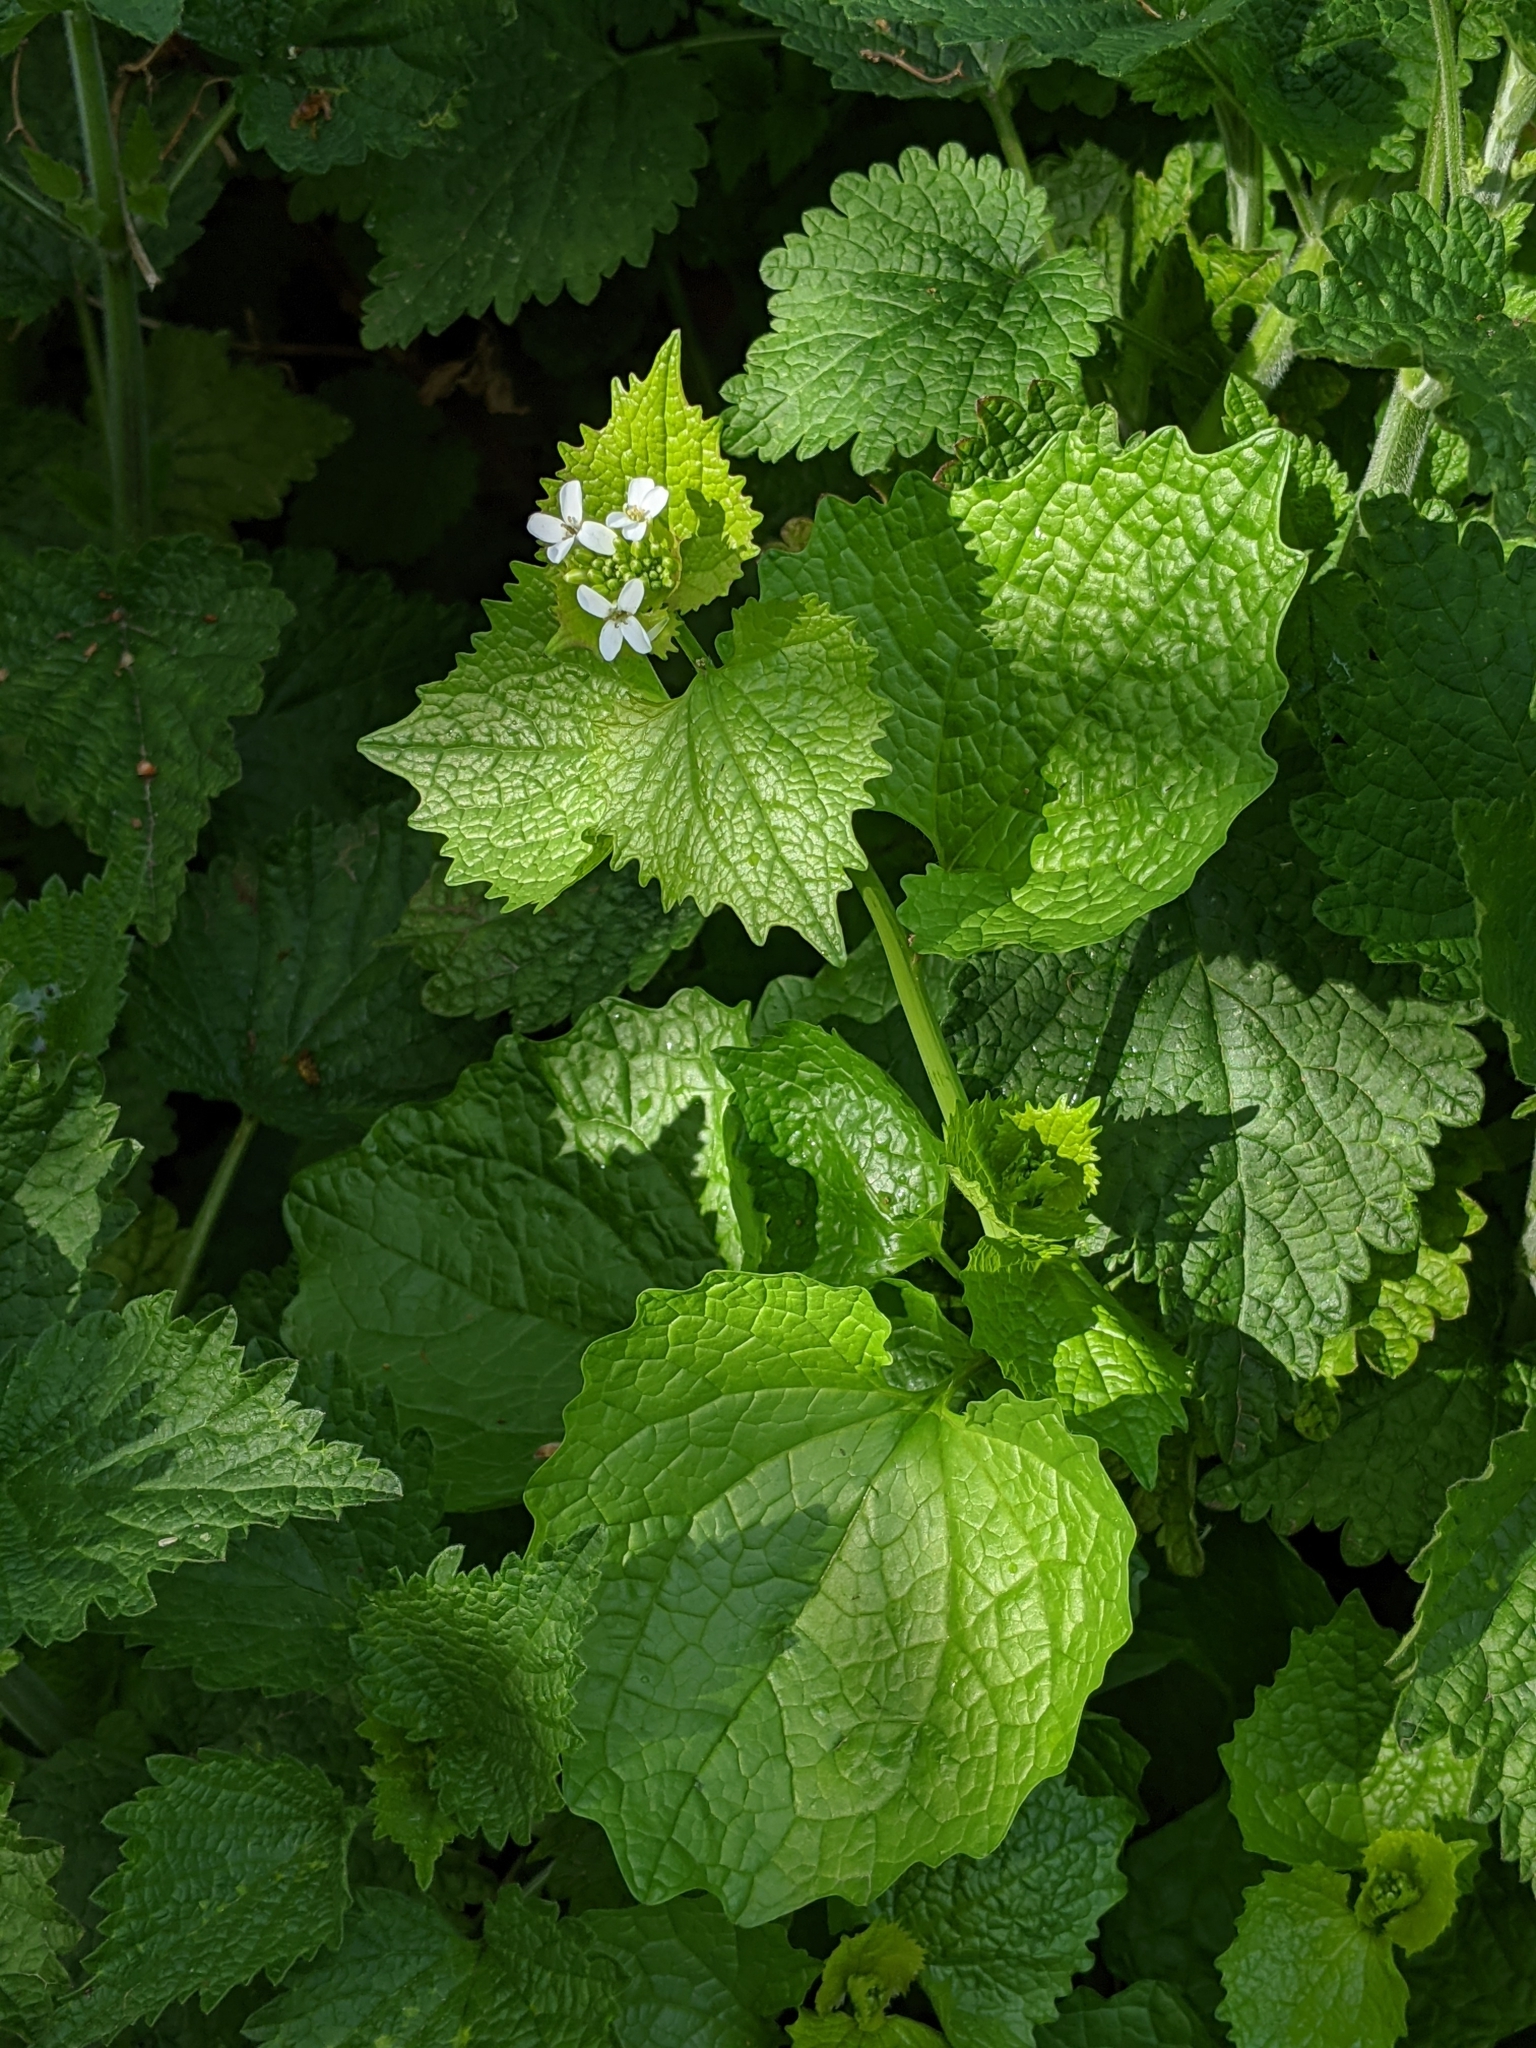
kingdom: Plantae
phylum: Tracheophyta
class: Magnoliopsida
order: Brassicales
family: Brassicaceae
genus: Alliaria
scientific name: Alliaria petiolata
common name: Garlic mustard
